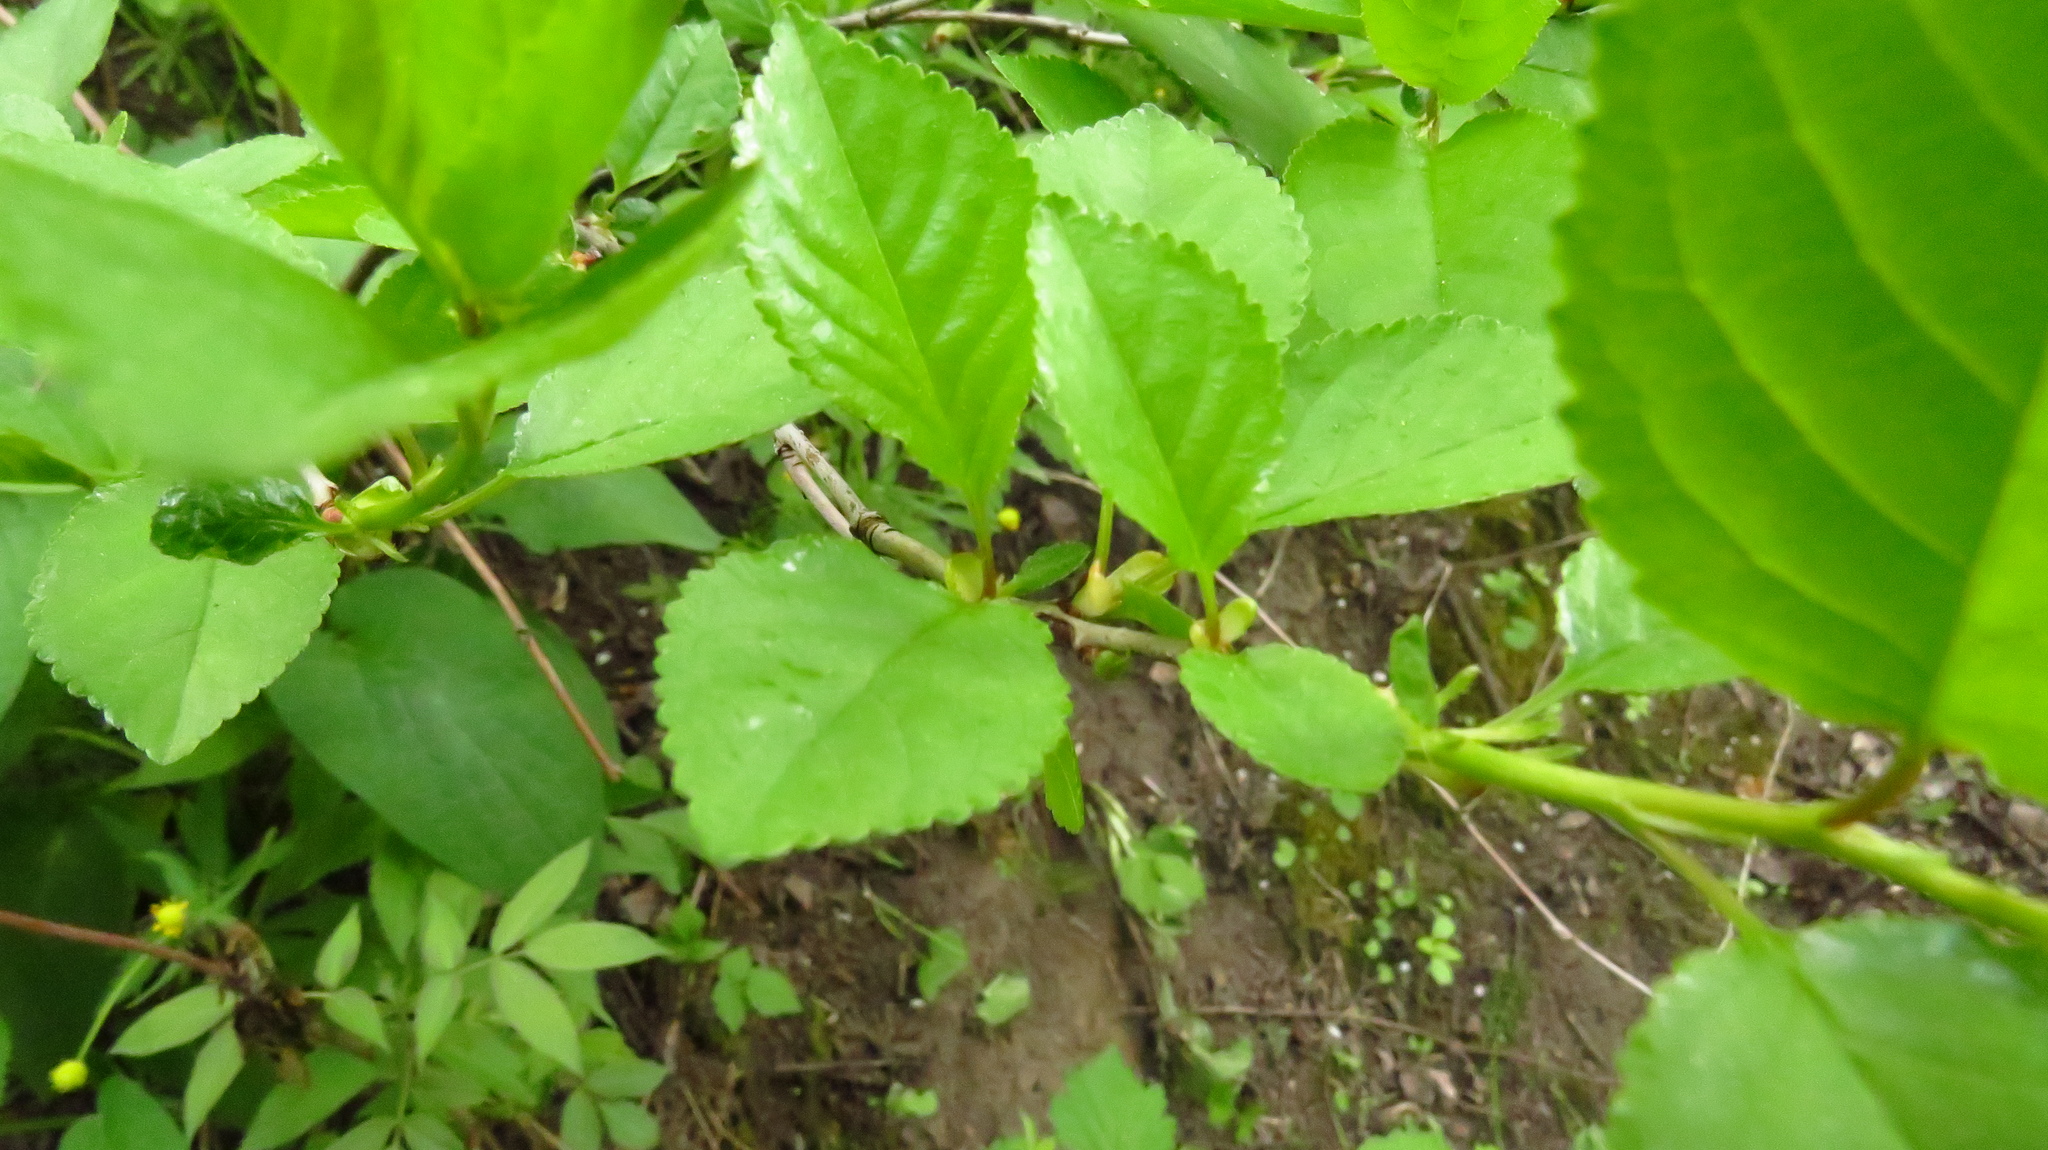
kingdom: Plantae
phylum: Tracheophyta
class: Magnoliopsida
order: Rosales
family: Rosaceae
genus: Prunus
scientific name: Prunus cerasus
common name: Morello cherry
